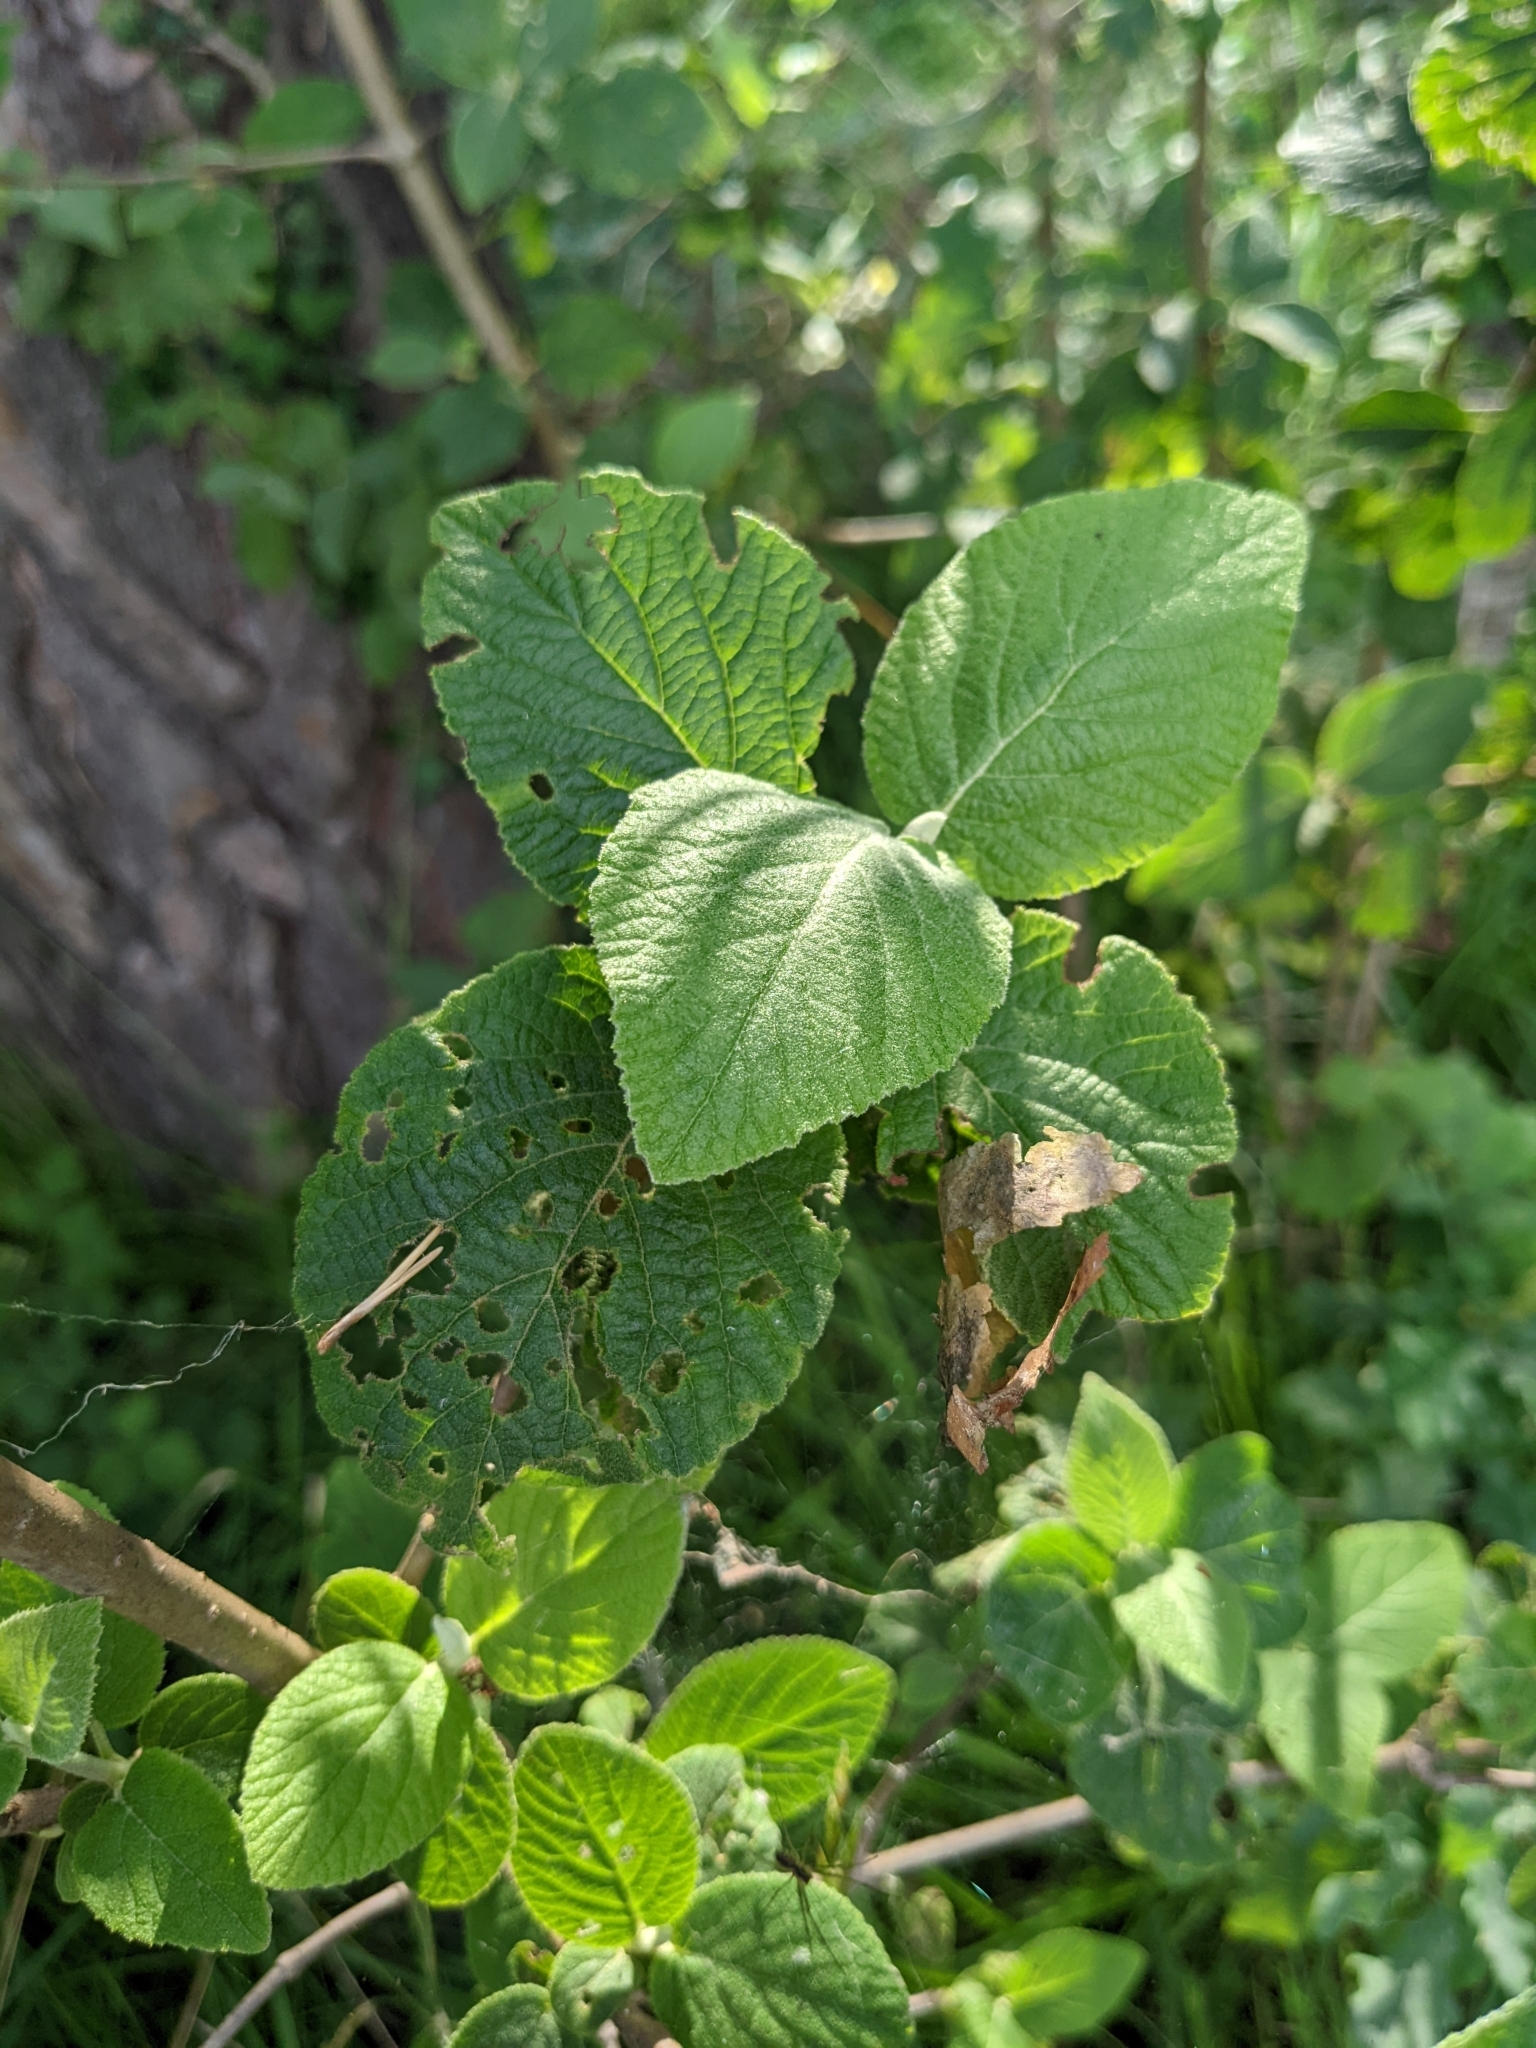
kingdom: Plantae
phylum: Tracheophyta
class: Magnoliopsida
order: Dipsacales
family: Viburnaceae
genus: Viburnum
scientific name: Viburnum lantana
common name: Wayfaring tree
